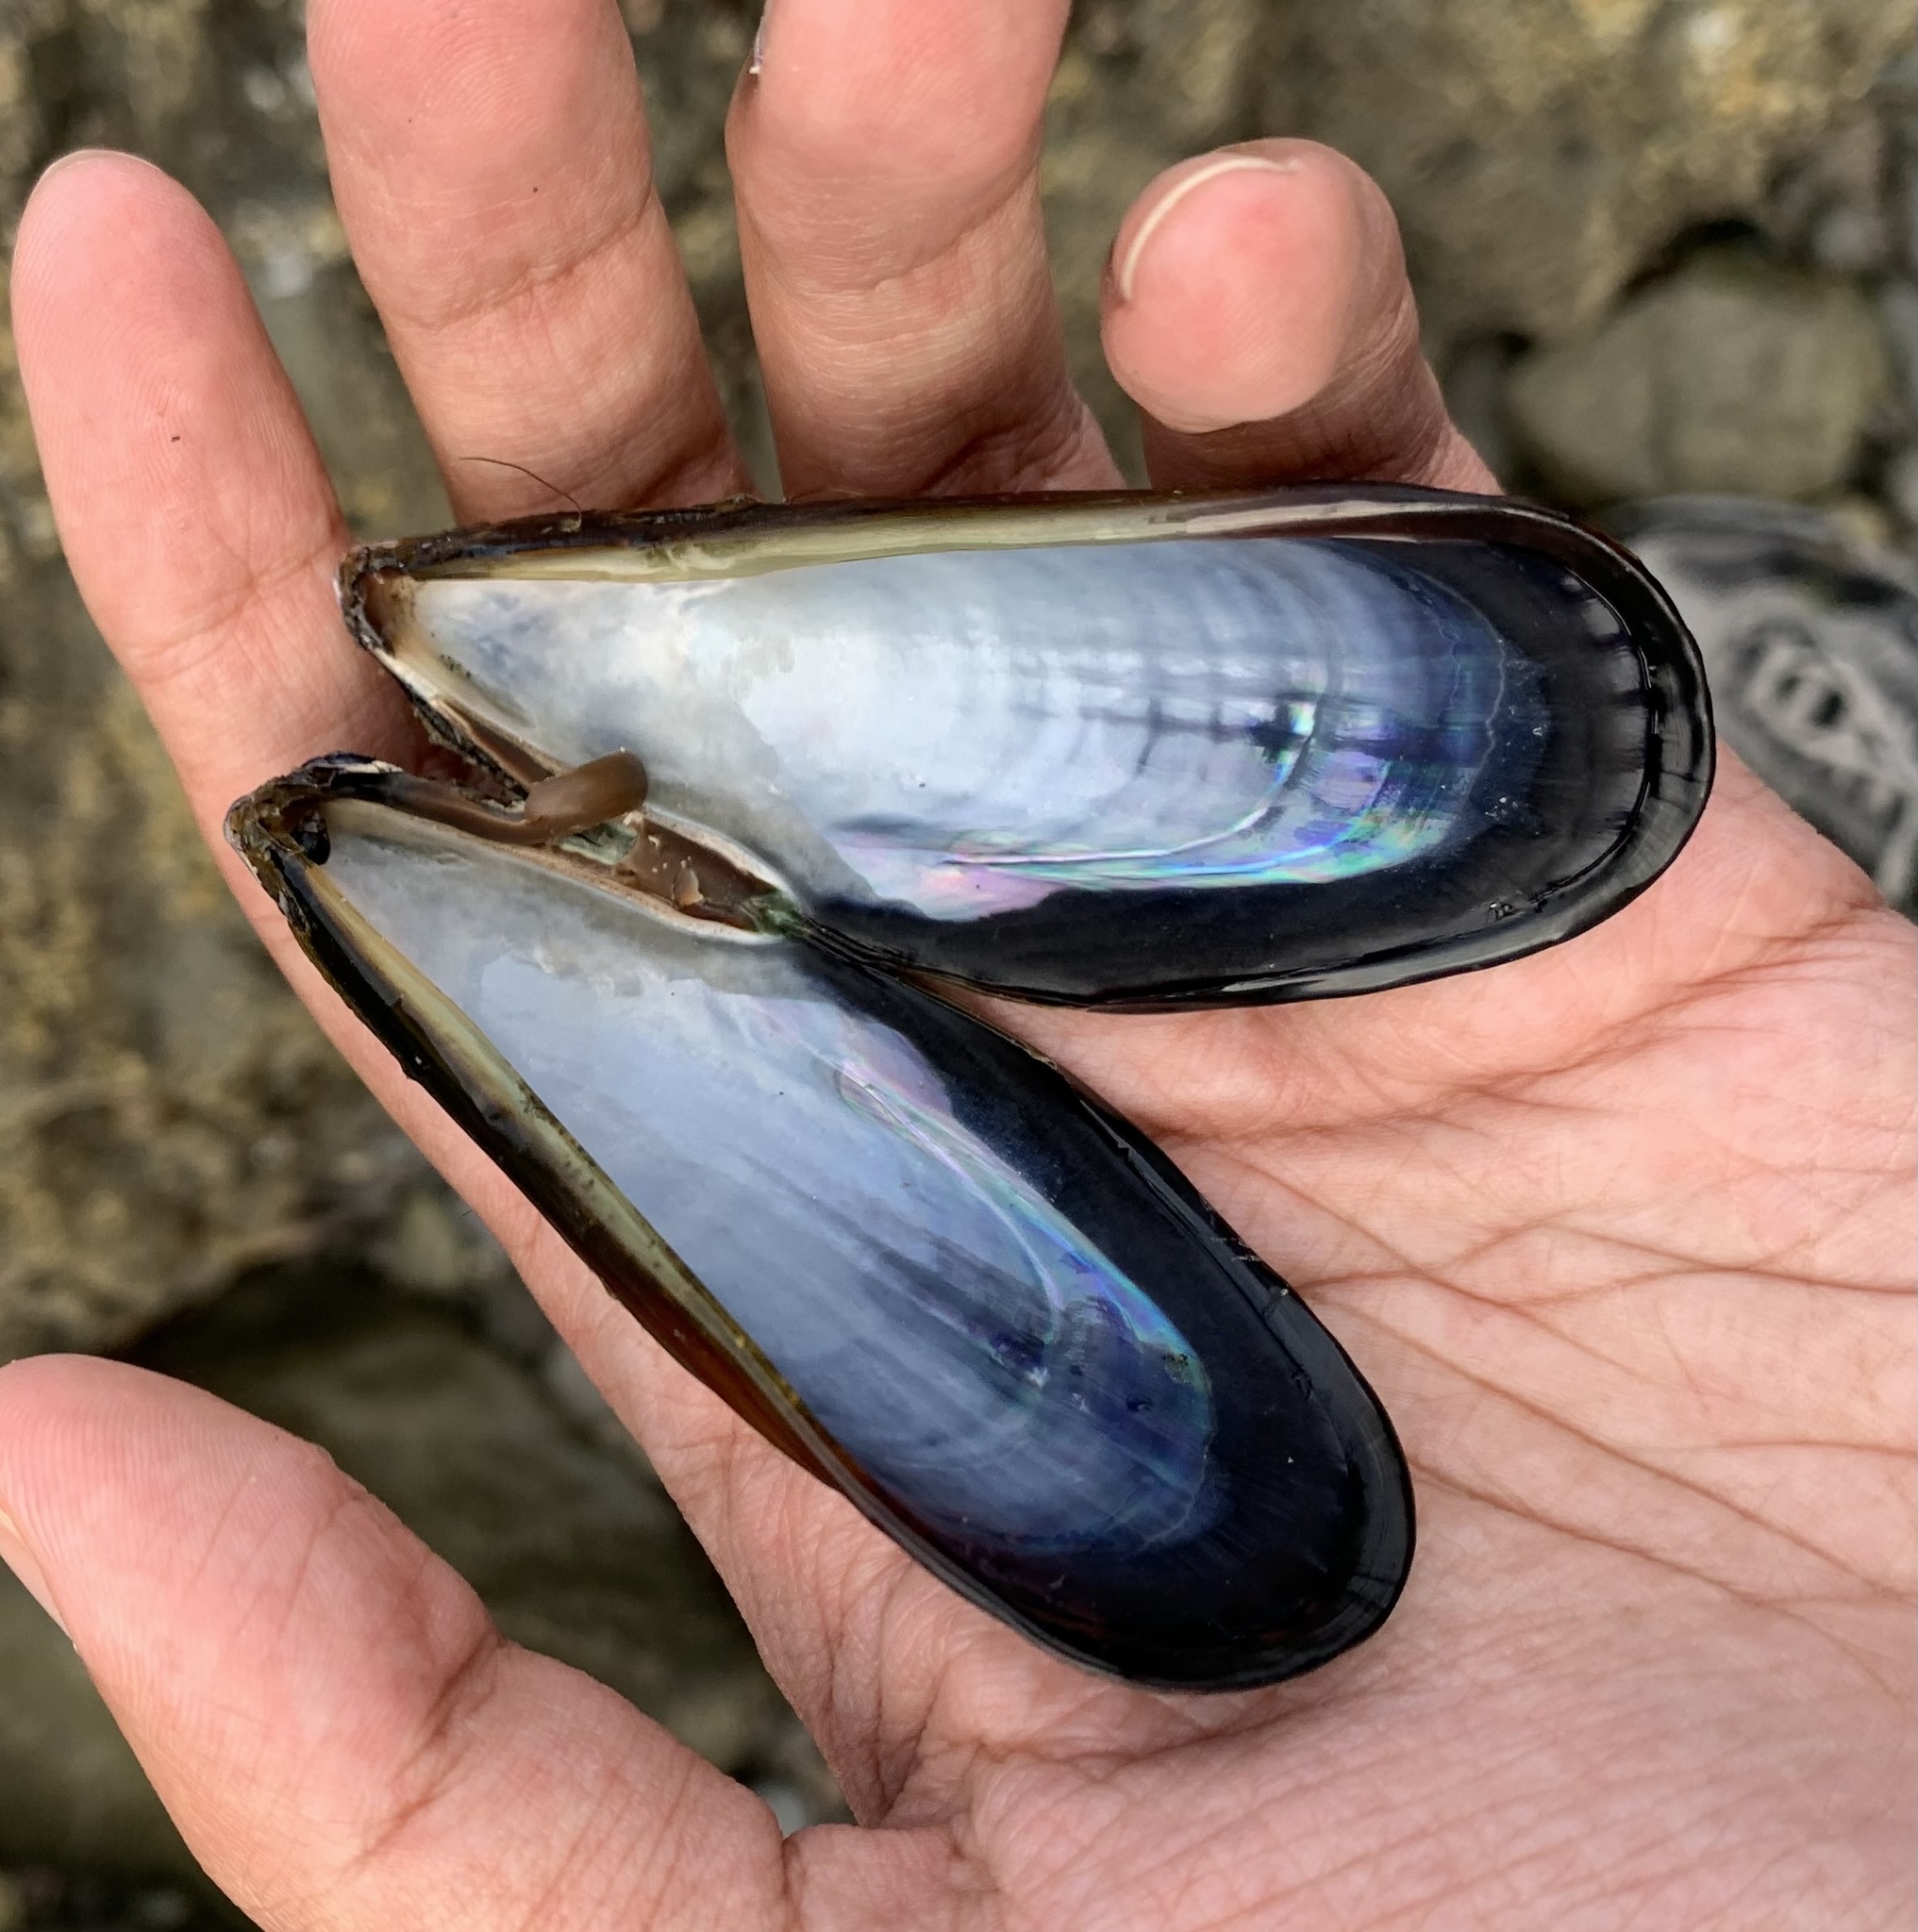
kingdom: Animalia
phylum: Mollusca
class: Bivalvia
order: Mytilida
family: Mytilidae
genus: Mytilus
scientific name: Mytilus californianus
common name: California mussel
